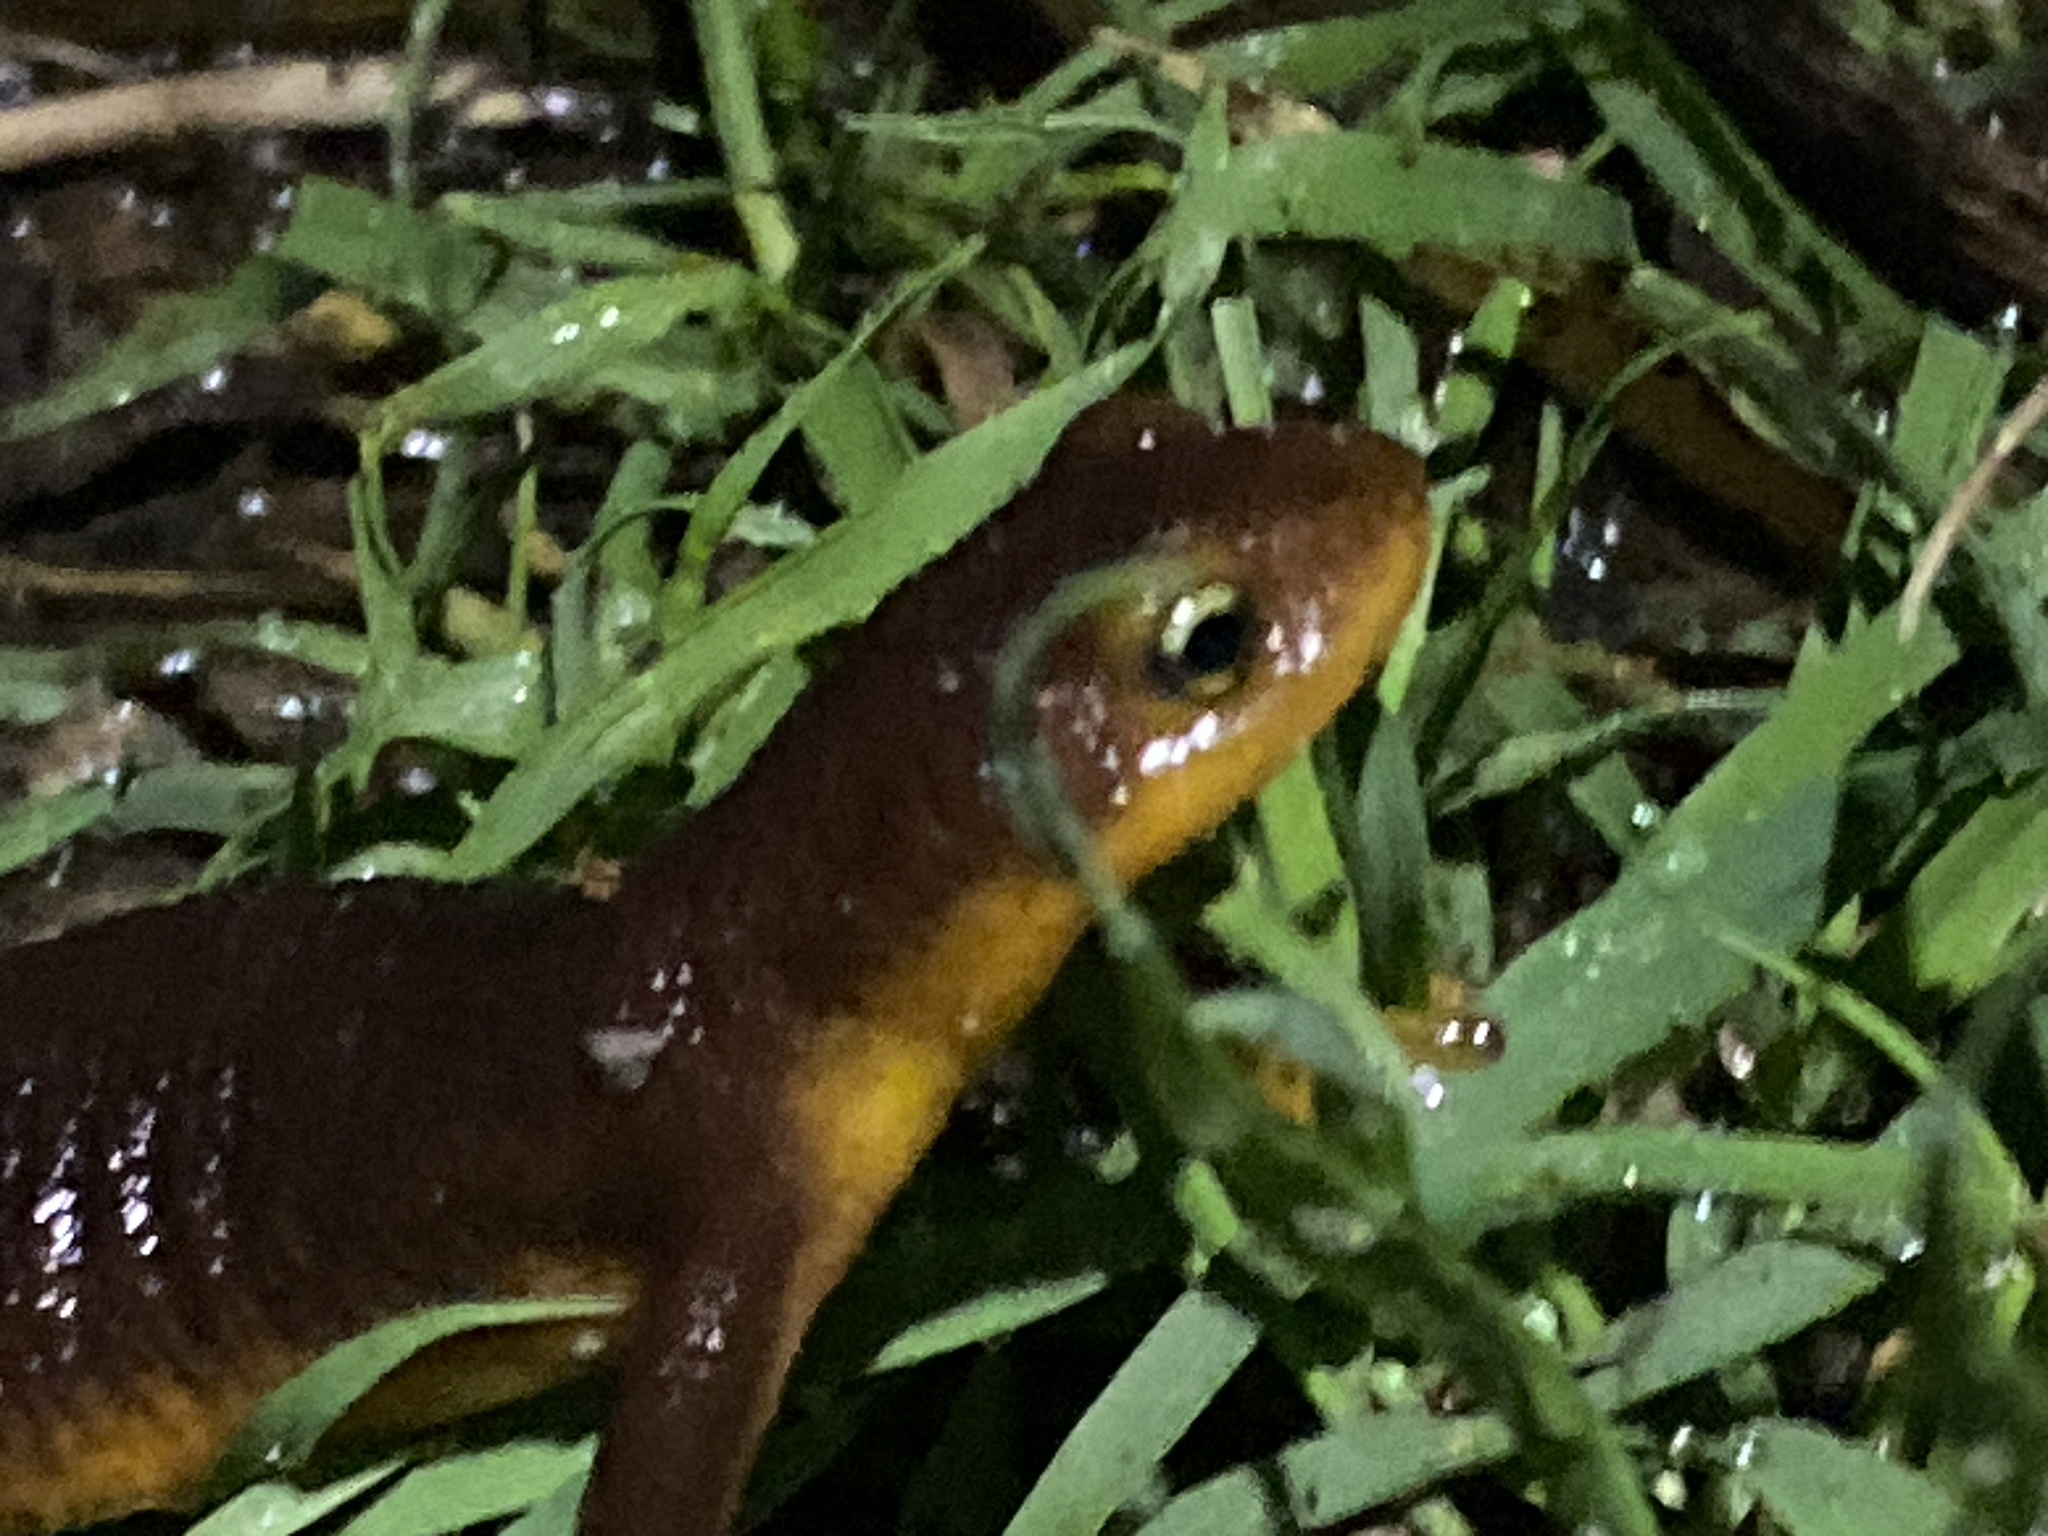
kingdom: Animalia
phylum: Chordata
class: Amphibia
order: Caudata
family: Salamandridae
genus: Taricha
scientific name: Taricha torosa
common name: California newt
